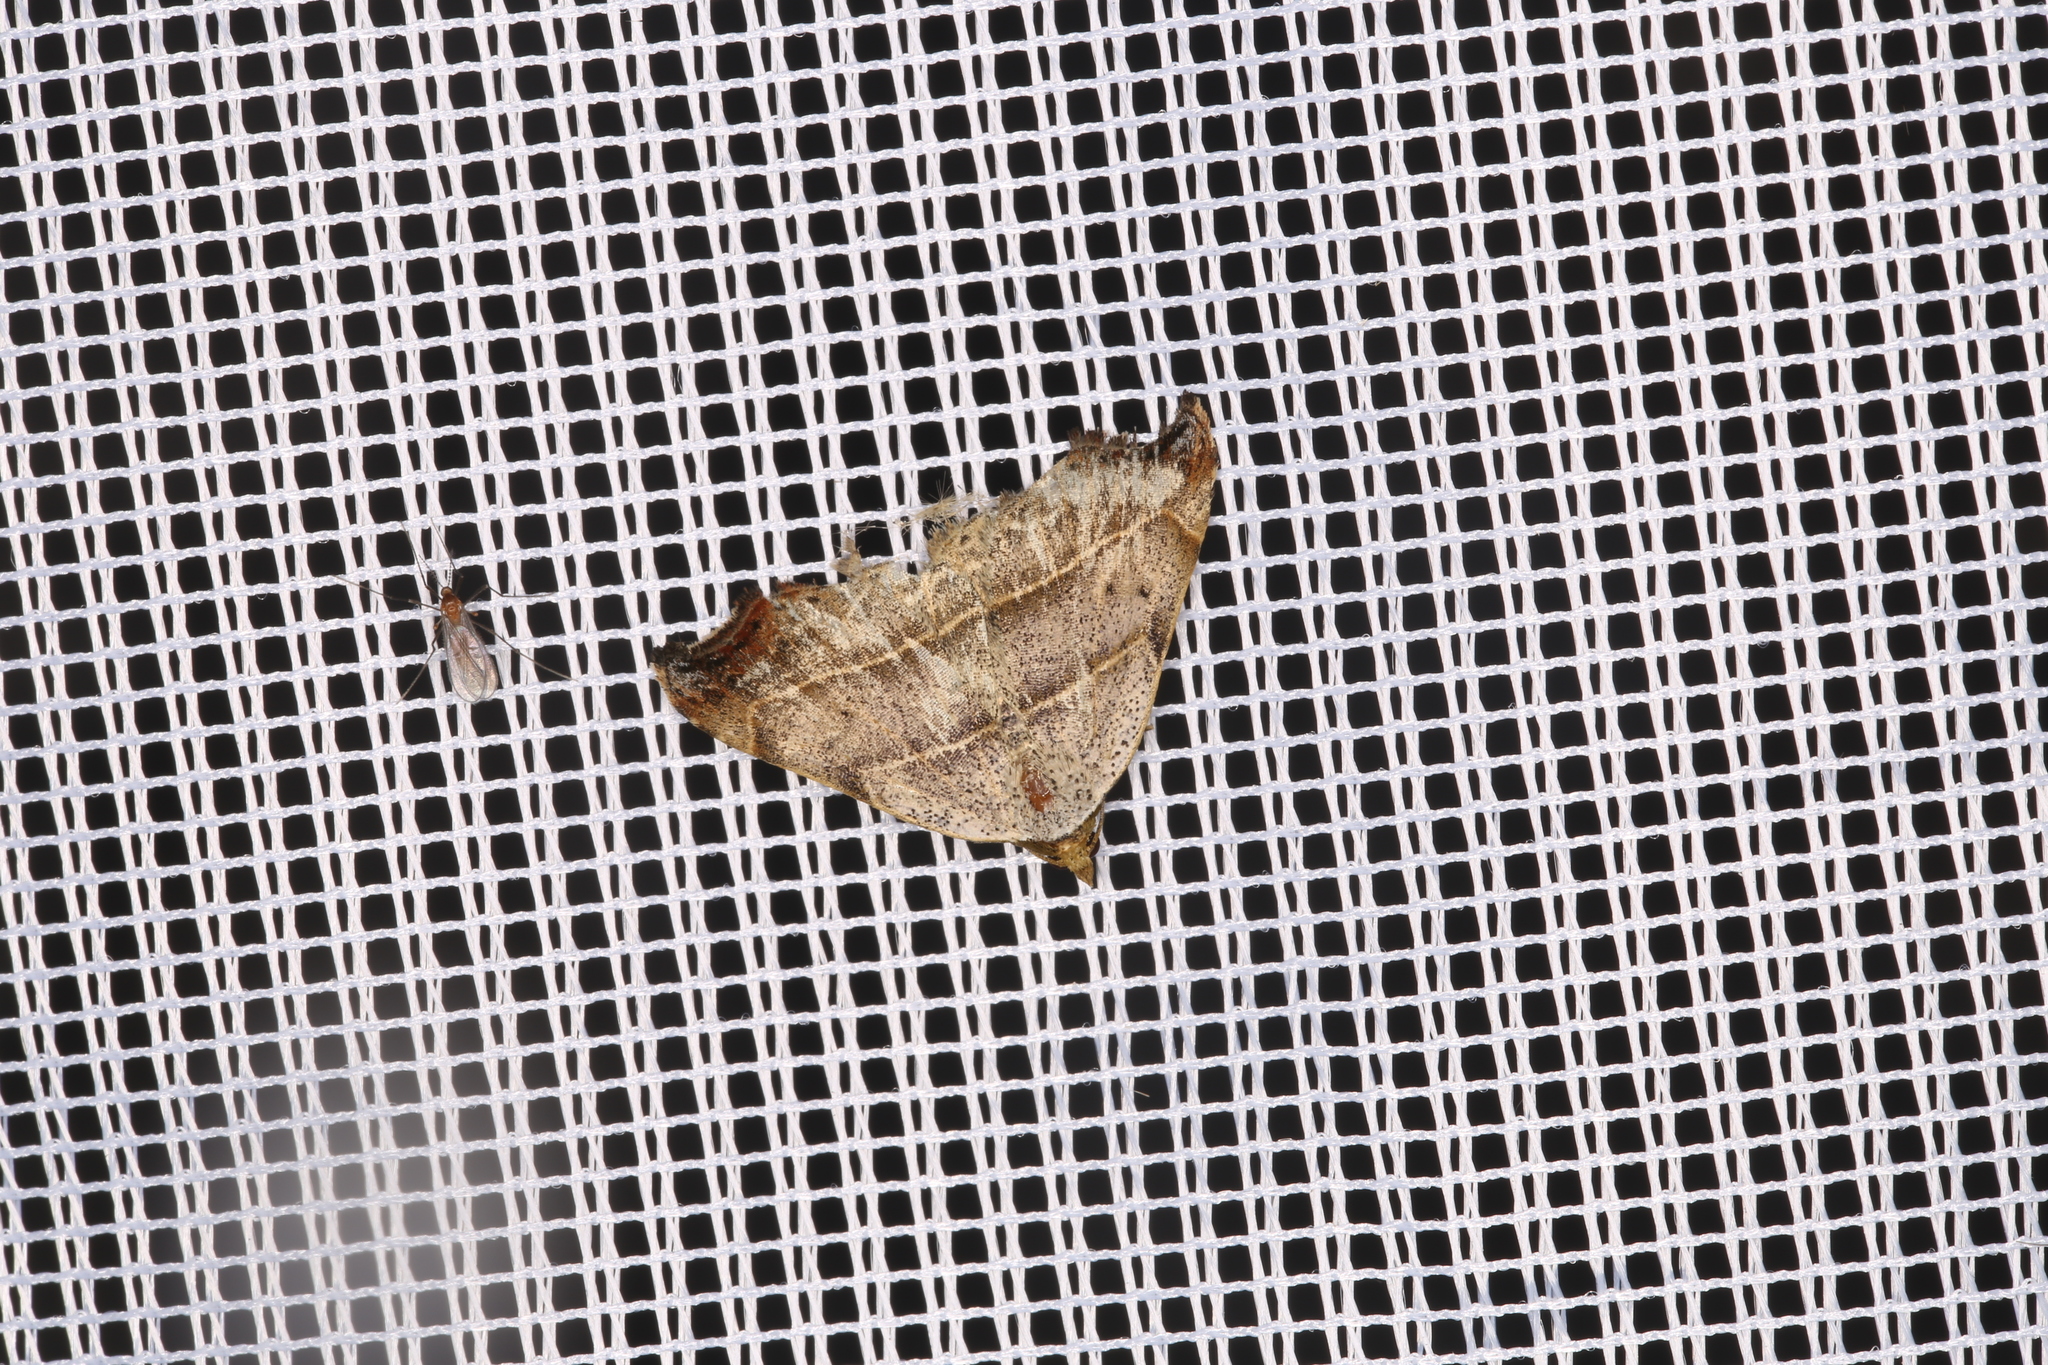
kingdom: Animalia
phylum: Arthropoda
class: Insecta
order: Lepidoptera
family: Erebidae
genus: Laspeyria
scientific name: Laspeyria flexula
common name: Beautiful hook-tip
